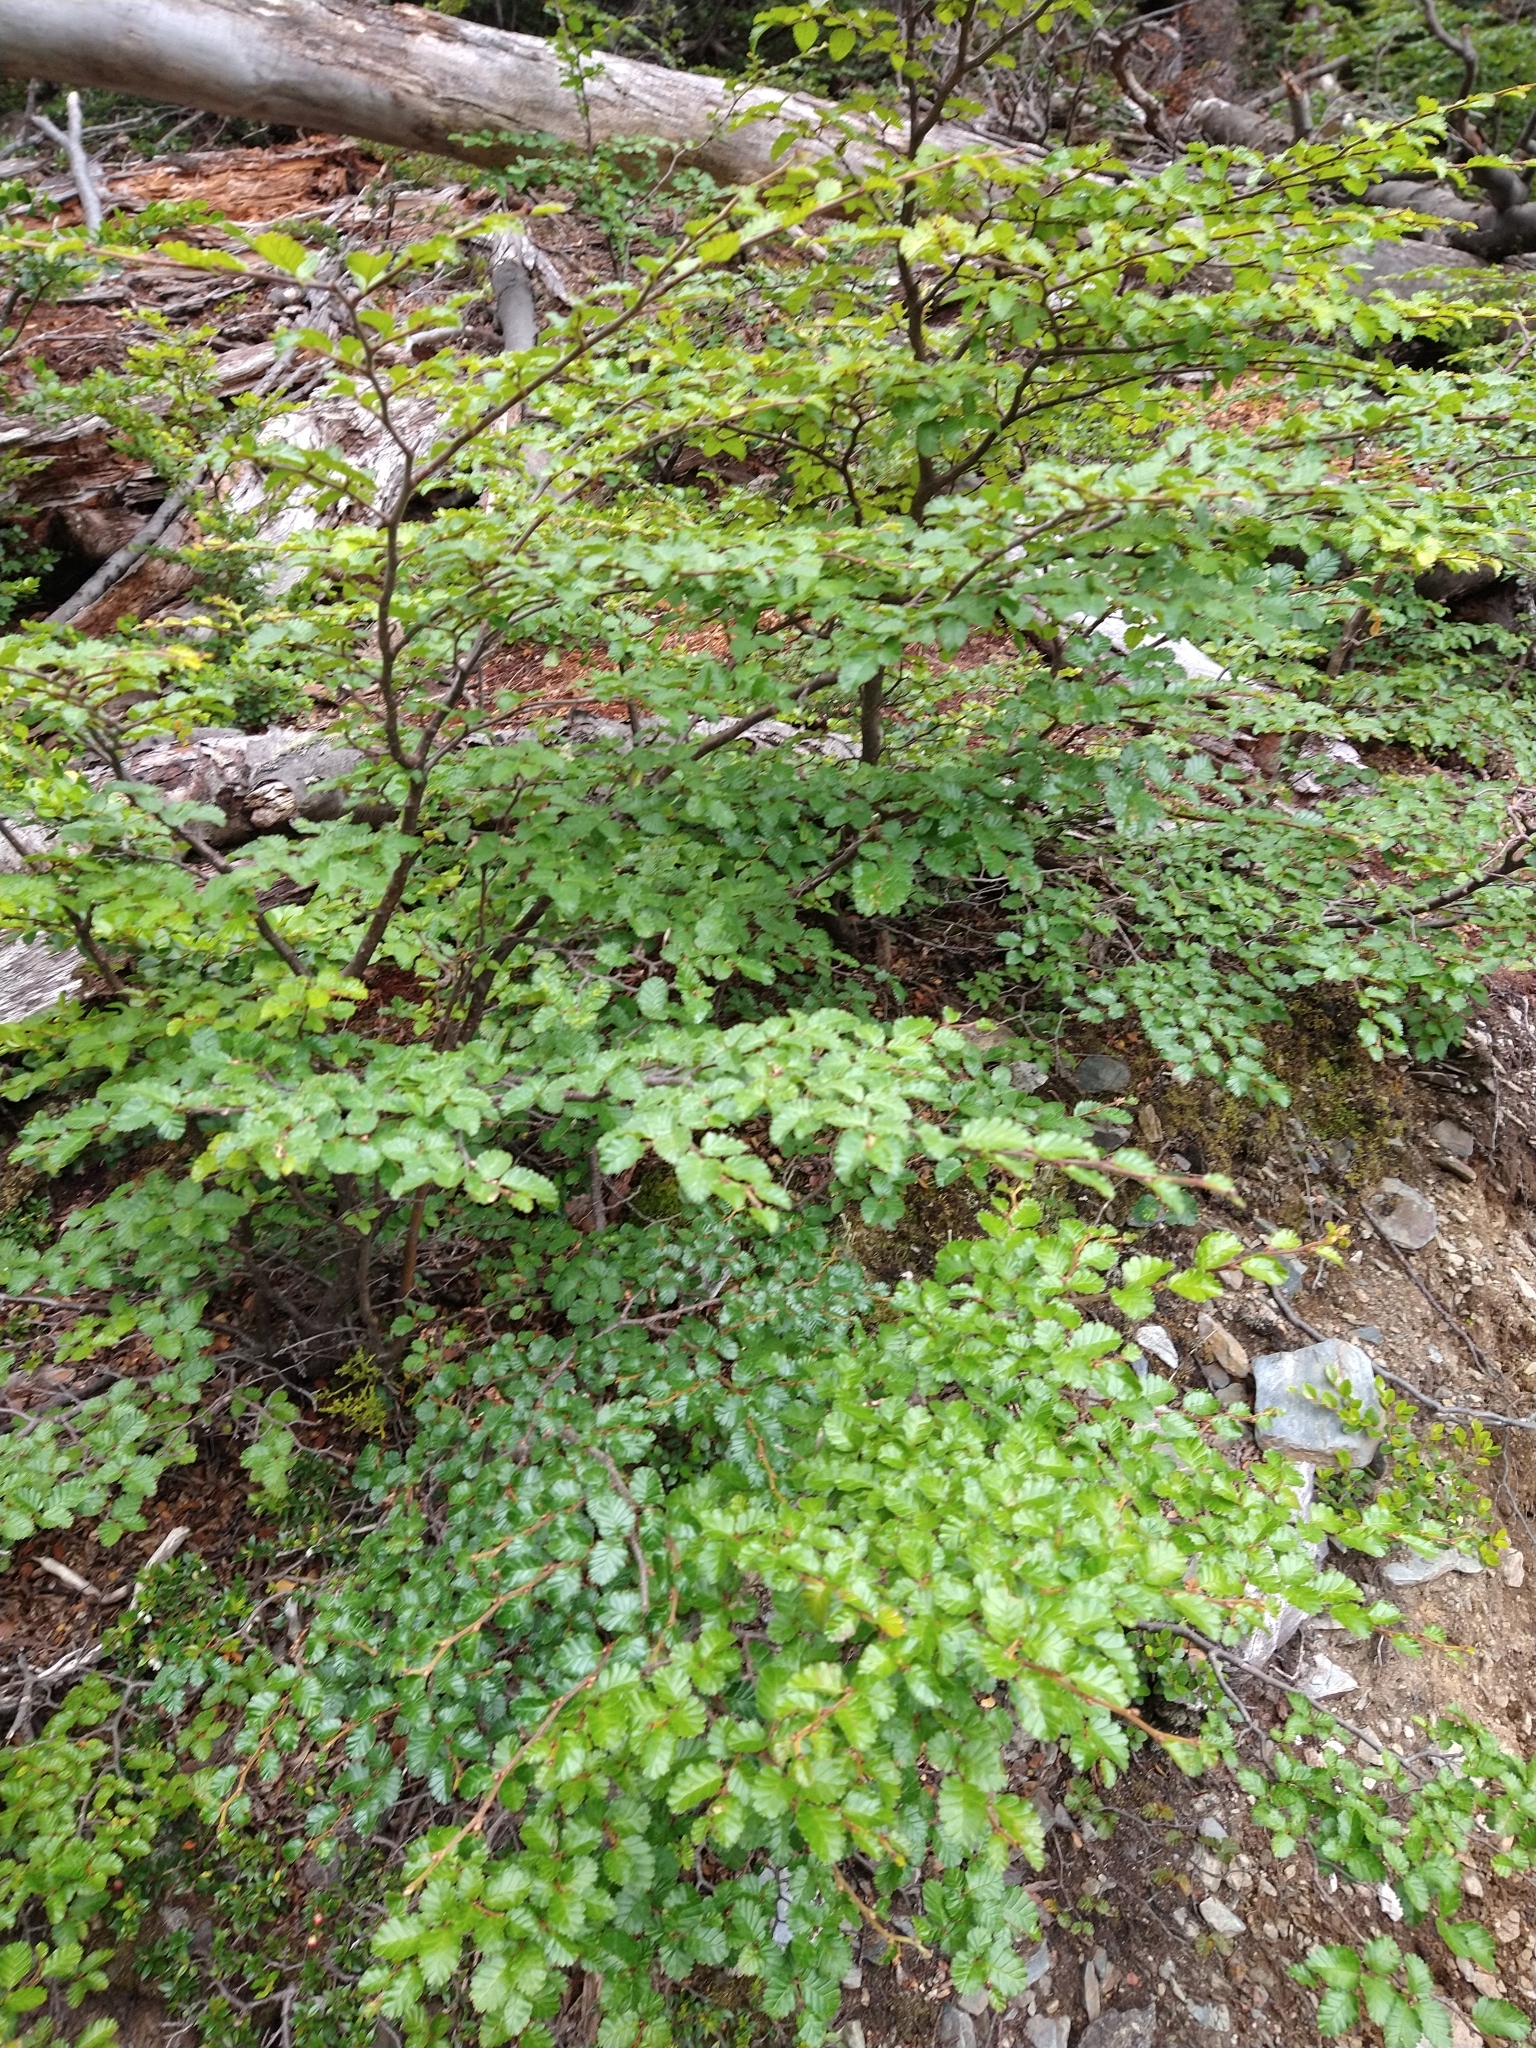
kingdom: Plantae
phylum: Tracheophyta
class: Magnoliopsida
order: Fagales
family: Nothofagaceae
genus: Nothofagus
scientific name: Nothofagus pumilio
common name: Lenga beech
